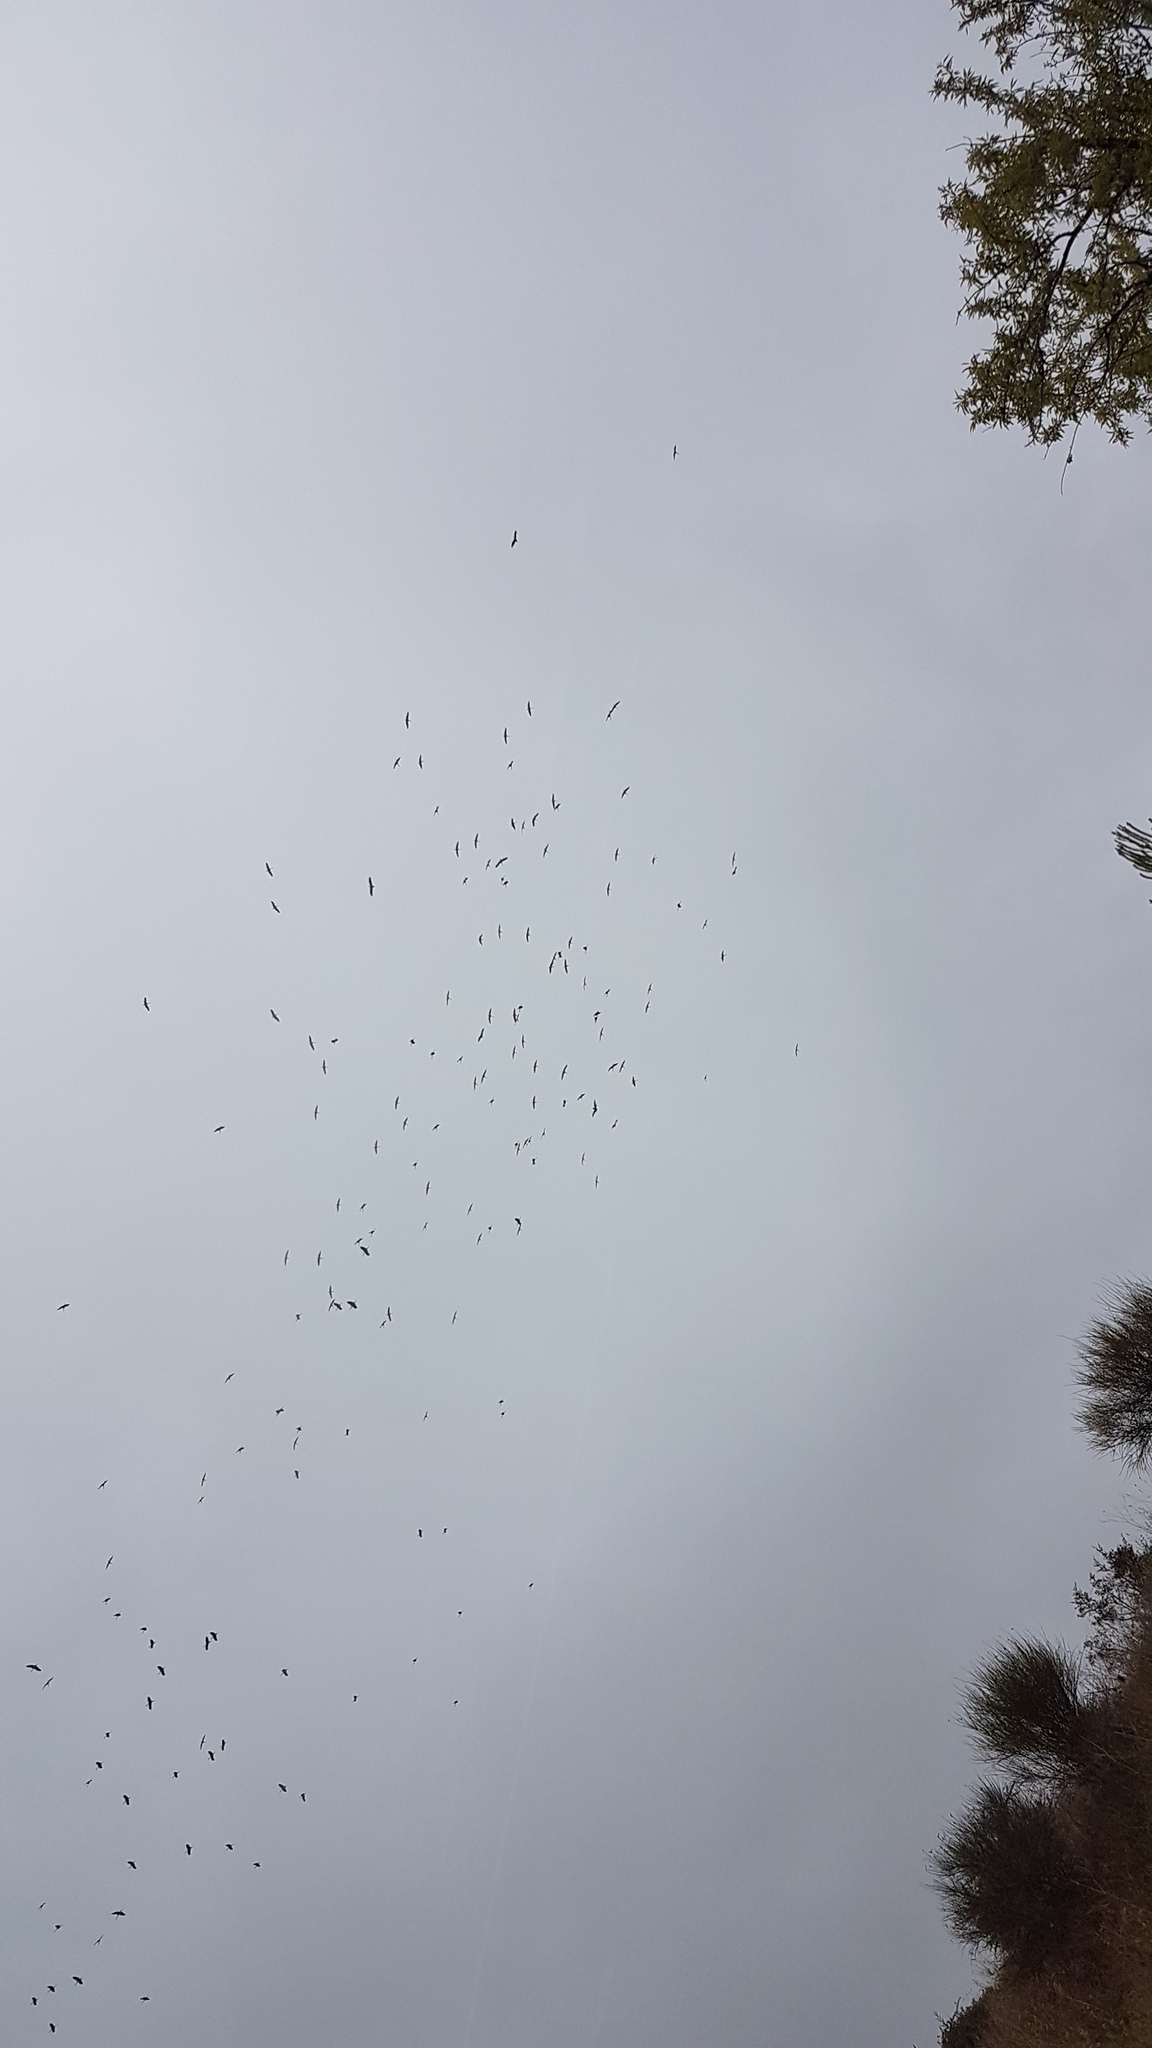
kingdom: Animalia
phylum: Chordata
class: Aves
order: Ciconiiformes
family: Ciconiidae
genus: Ciconia
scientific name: Ciconia ciconia
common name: White stork
